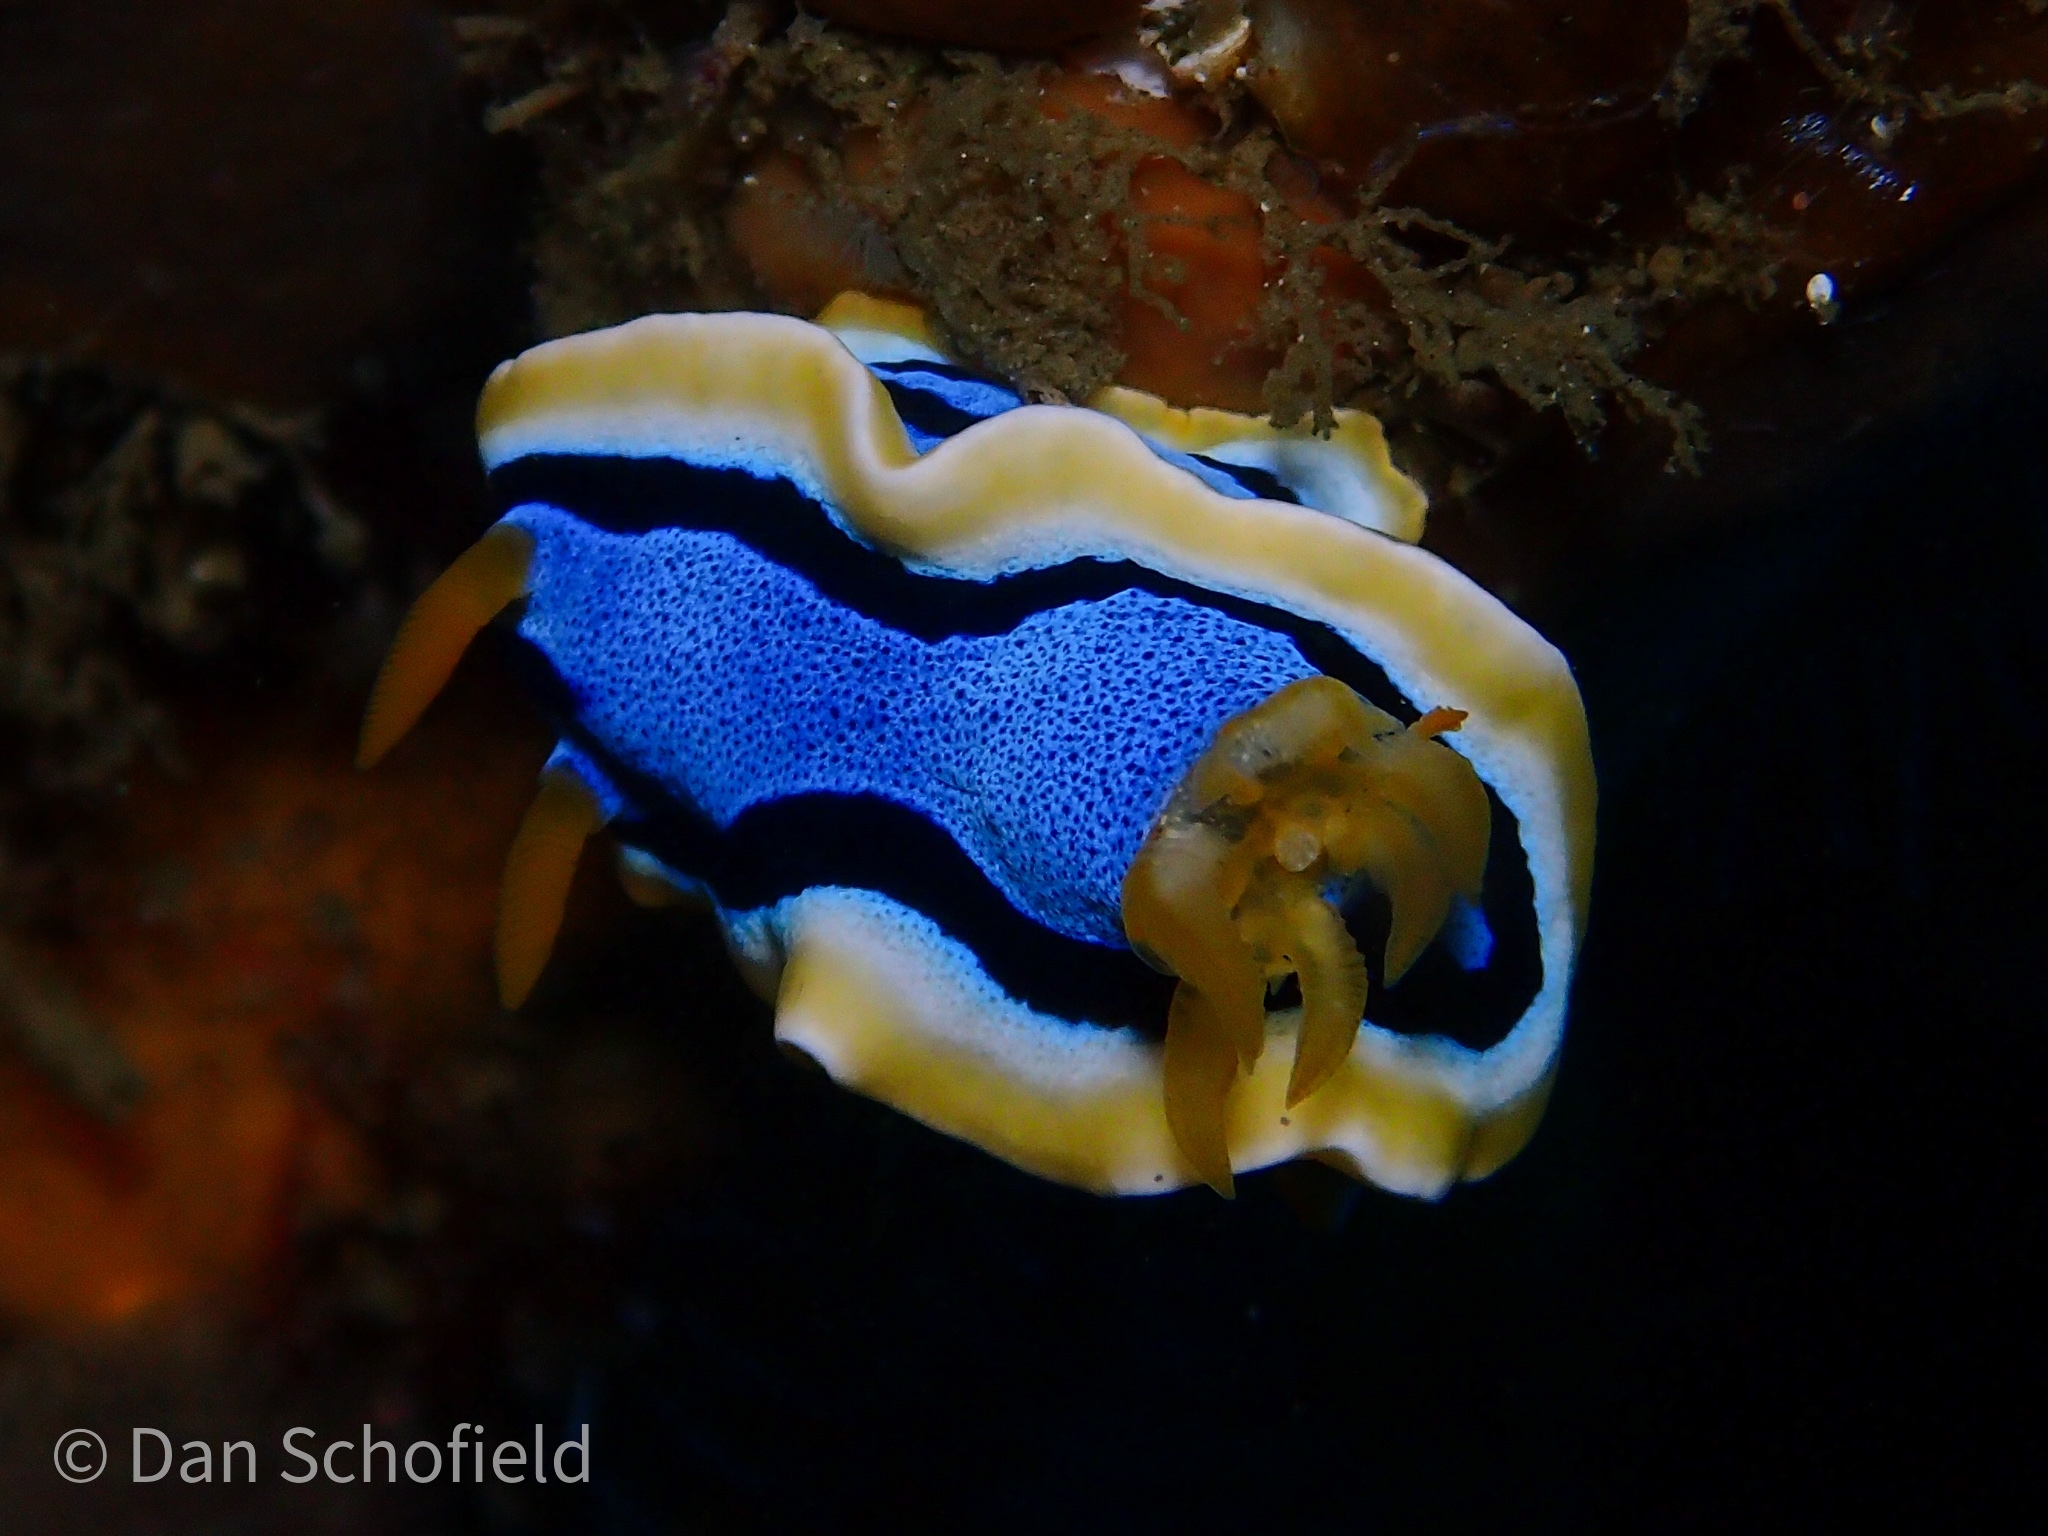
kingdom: Animalia
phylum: Mollusca
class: Gastropoda
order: Nudibranchia
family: Chromodorididae
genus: Chromodoris
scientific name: Chromodoris annae
